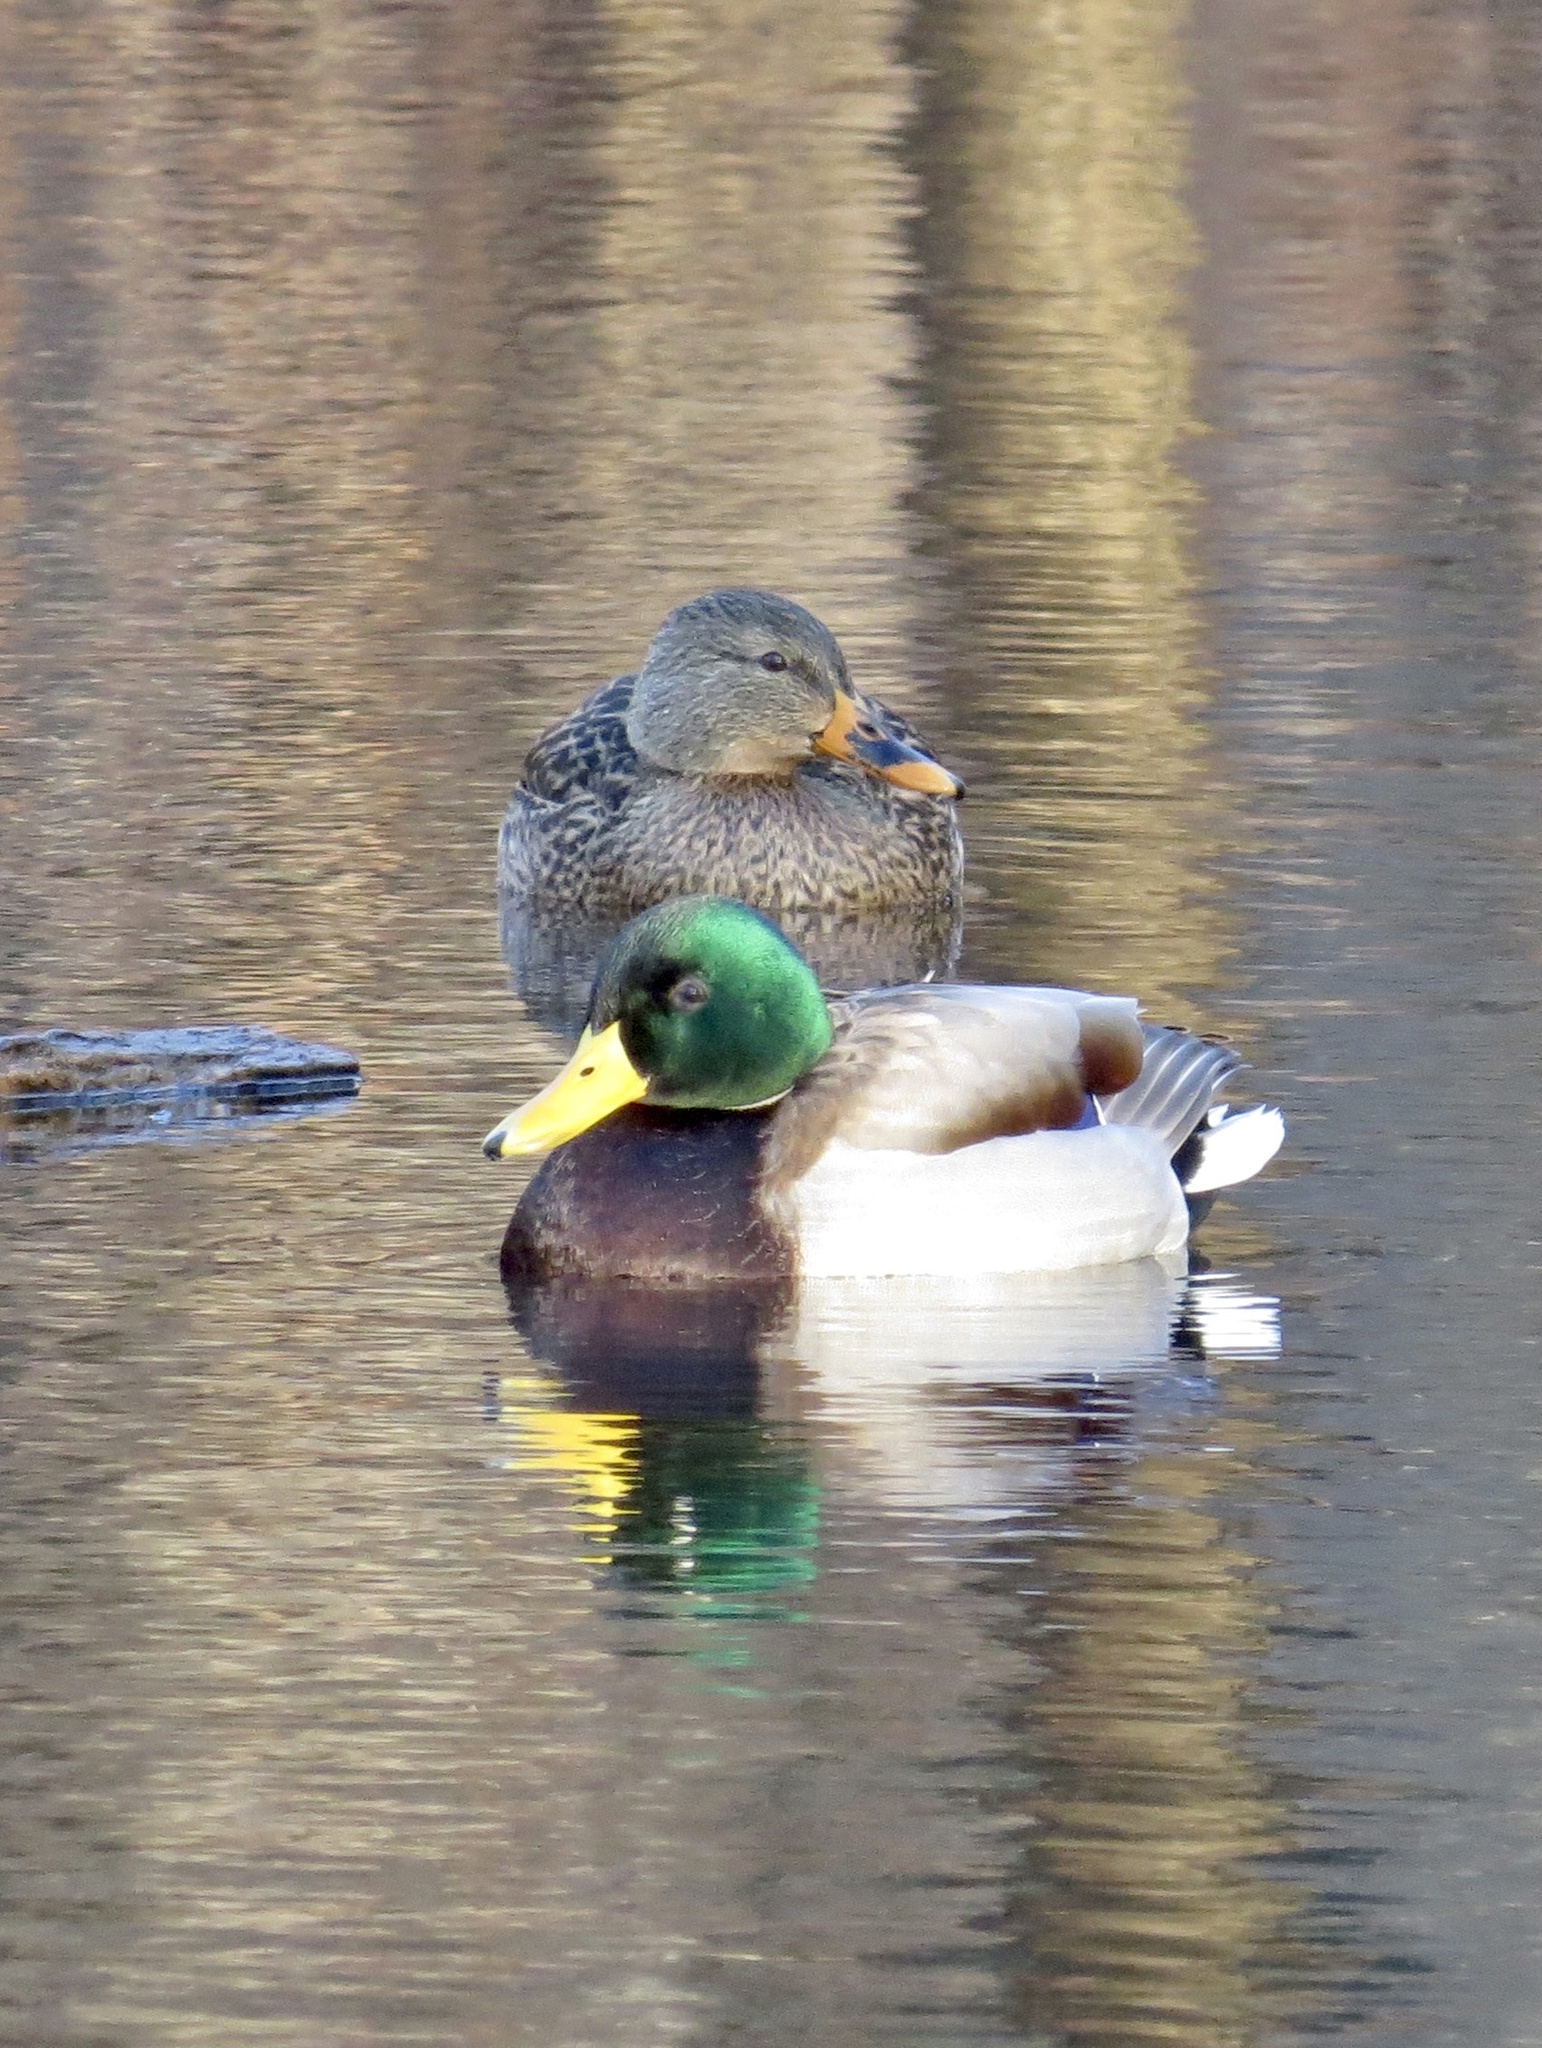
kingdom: Animalia
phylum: Chordata
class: Aves
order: Anseriformes
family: Anatidae
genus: Anas
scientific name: Anas platyrhynchos
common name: Mallard
